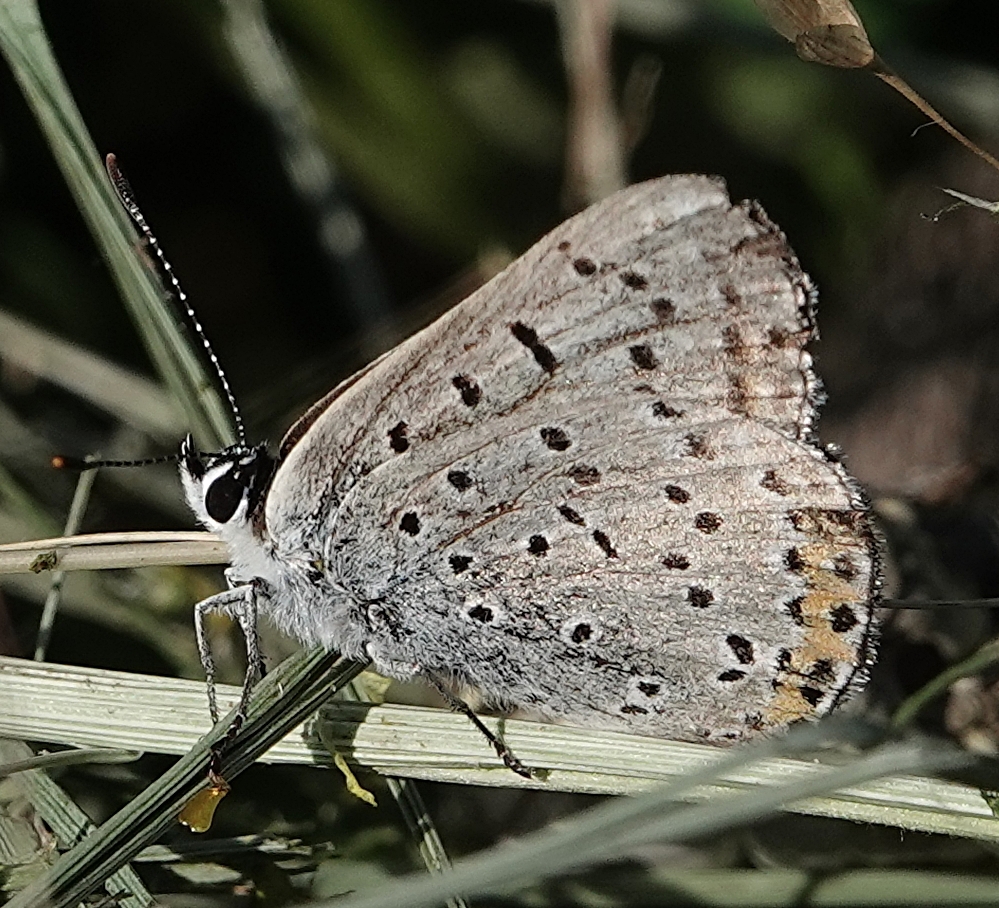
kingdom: Animalia
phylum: Arthropoda
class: Insecta
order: Lepidoptera
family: Lycaenidae
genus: Tharsalea
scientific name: Tharsalea dione
